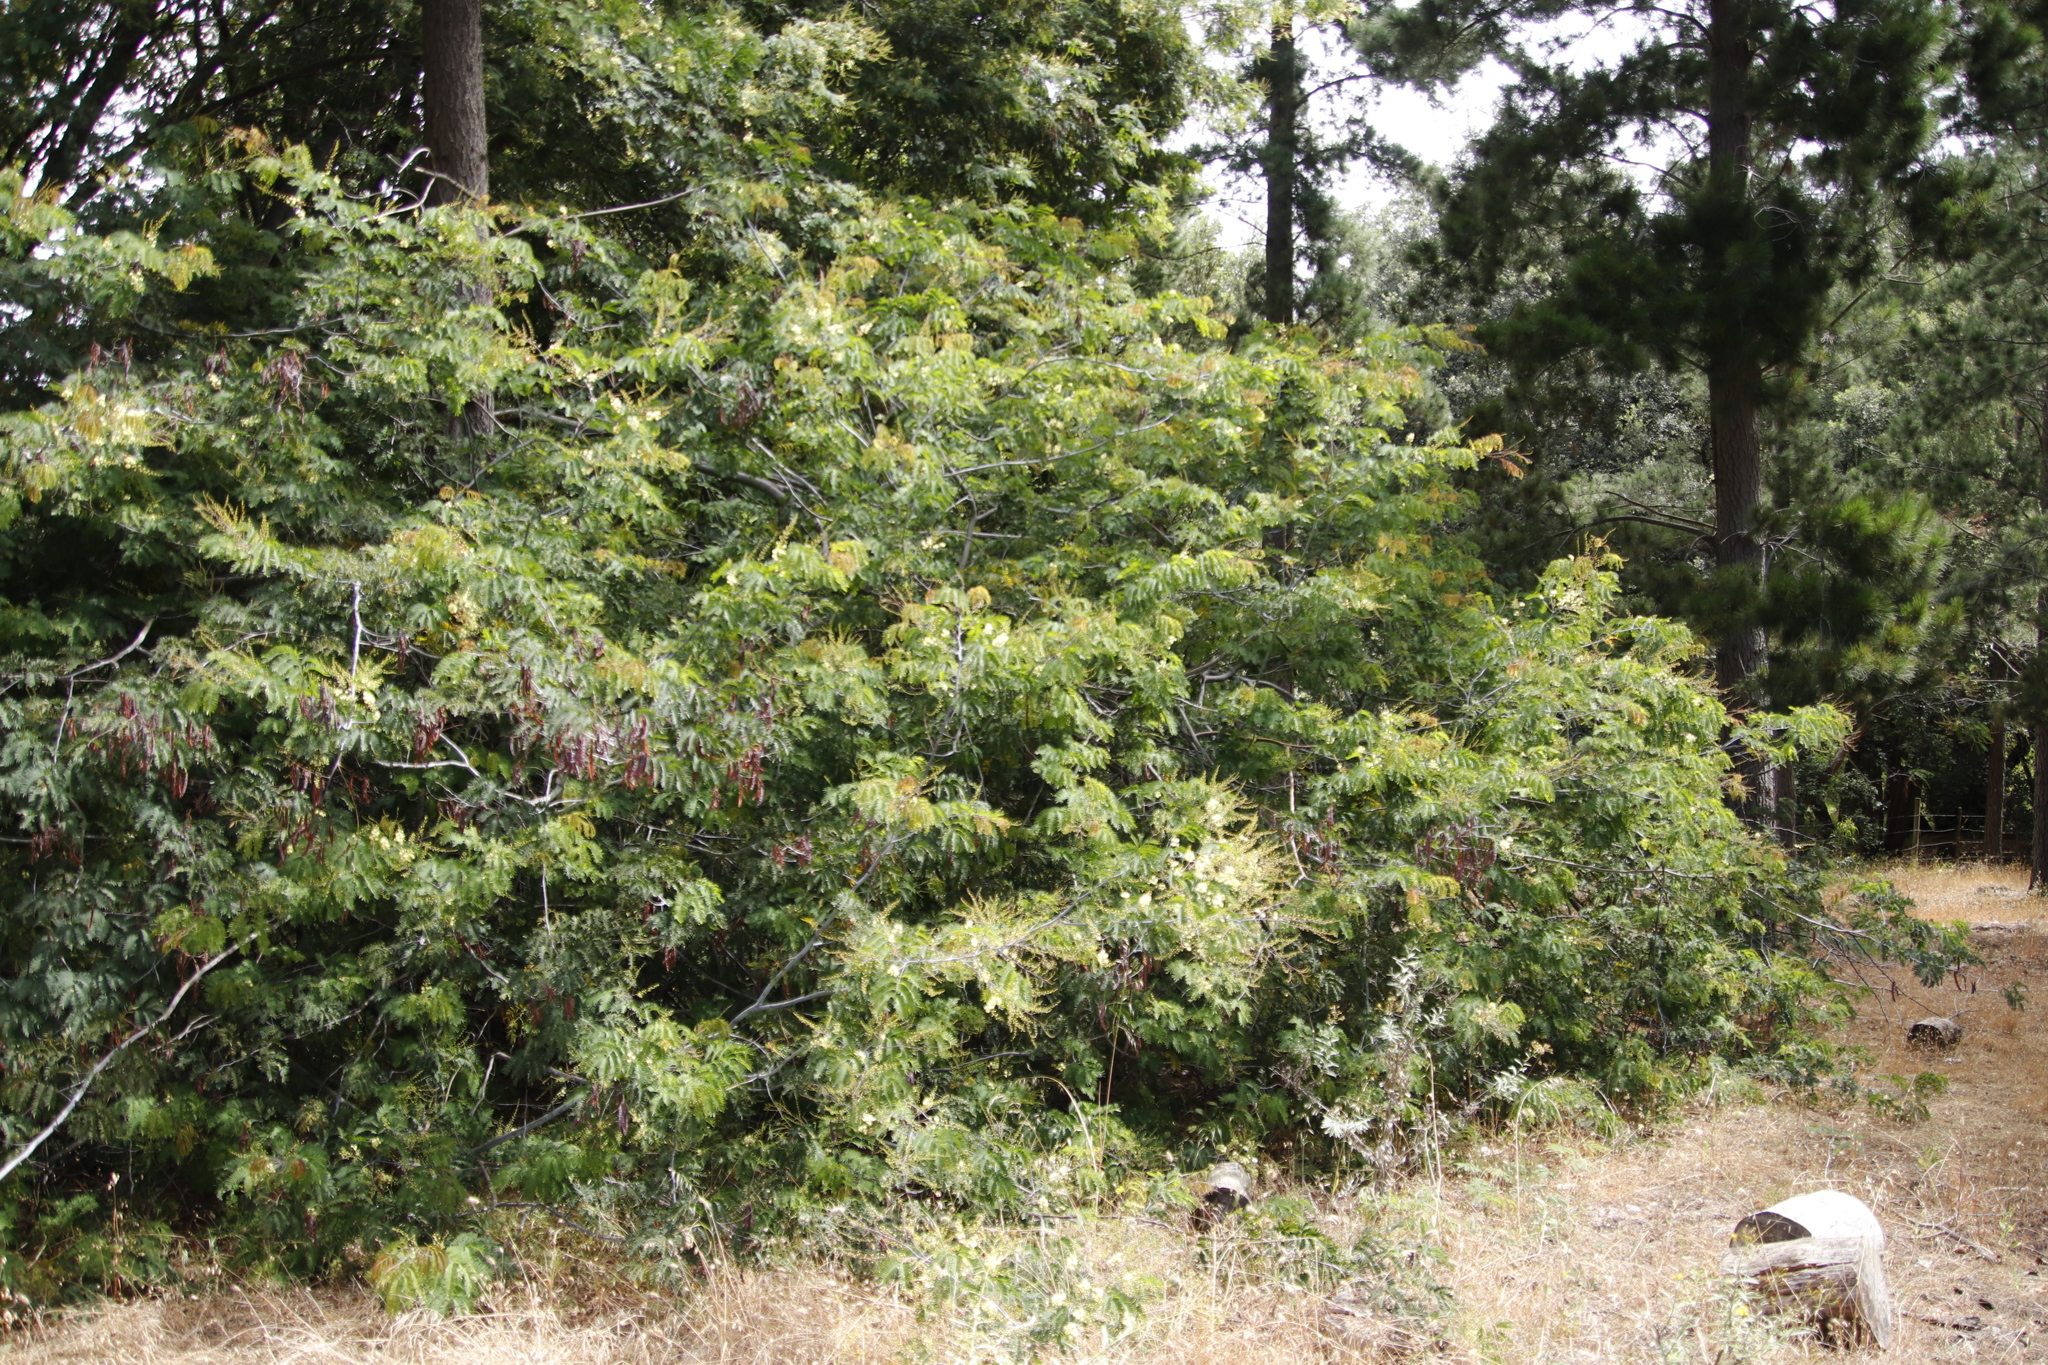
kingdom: Plantae
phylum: Tracheophyta
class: Magnoliopsida
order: Fabales
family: Fabaceae
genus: Acacia
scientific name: Acacia schinoides
